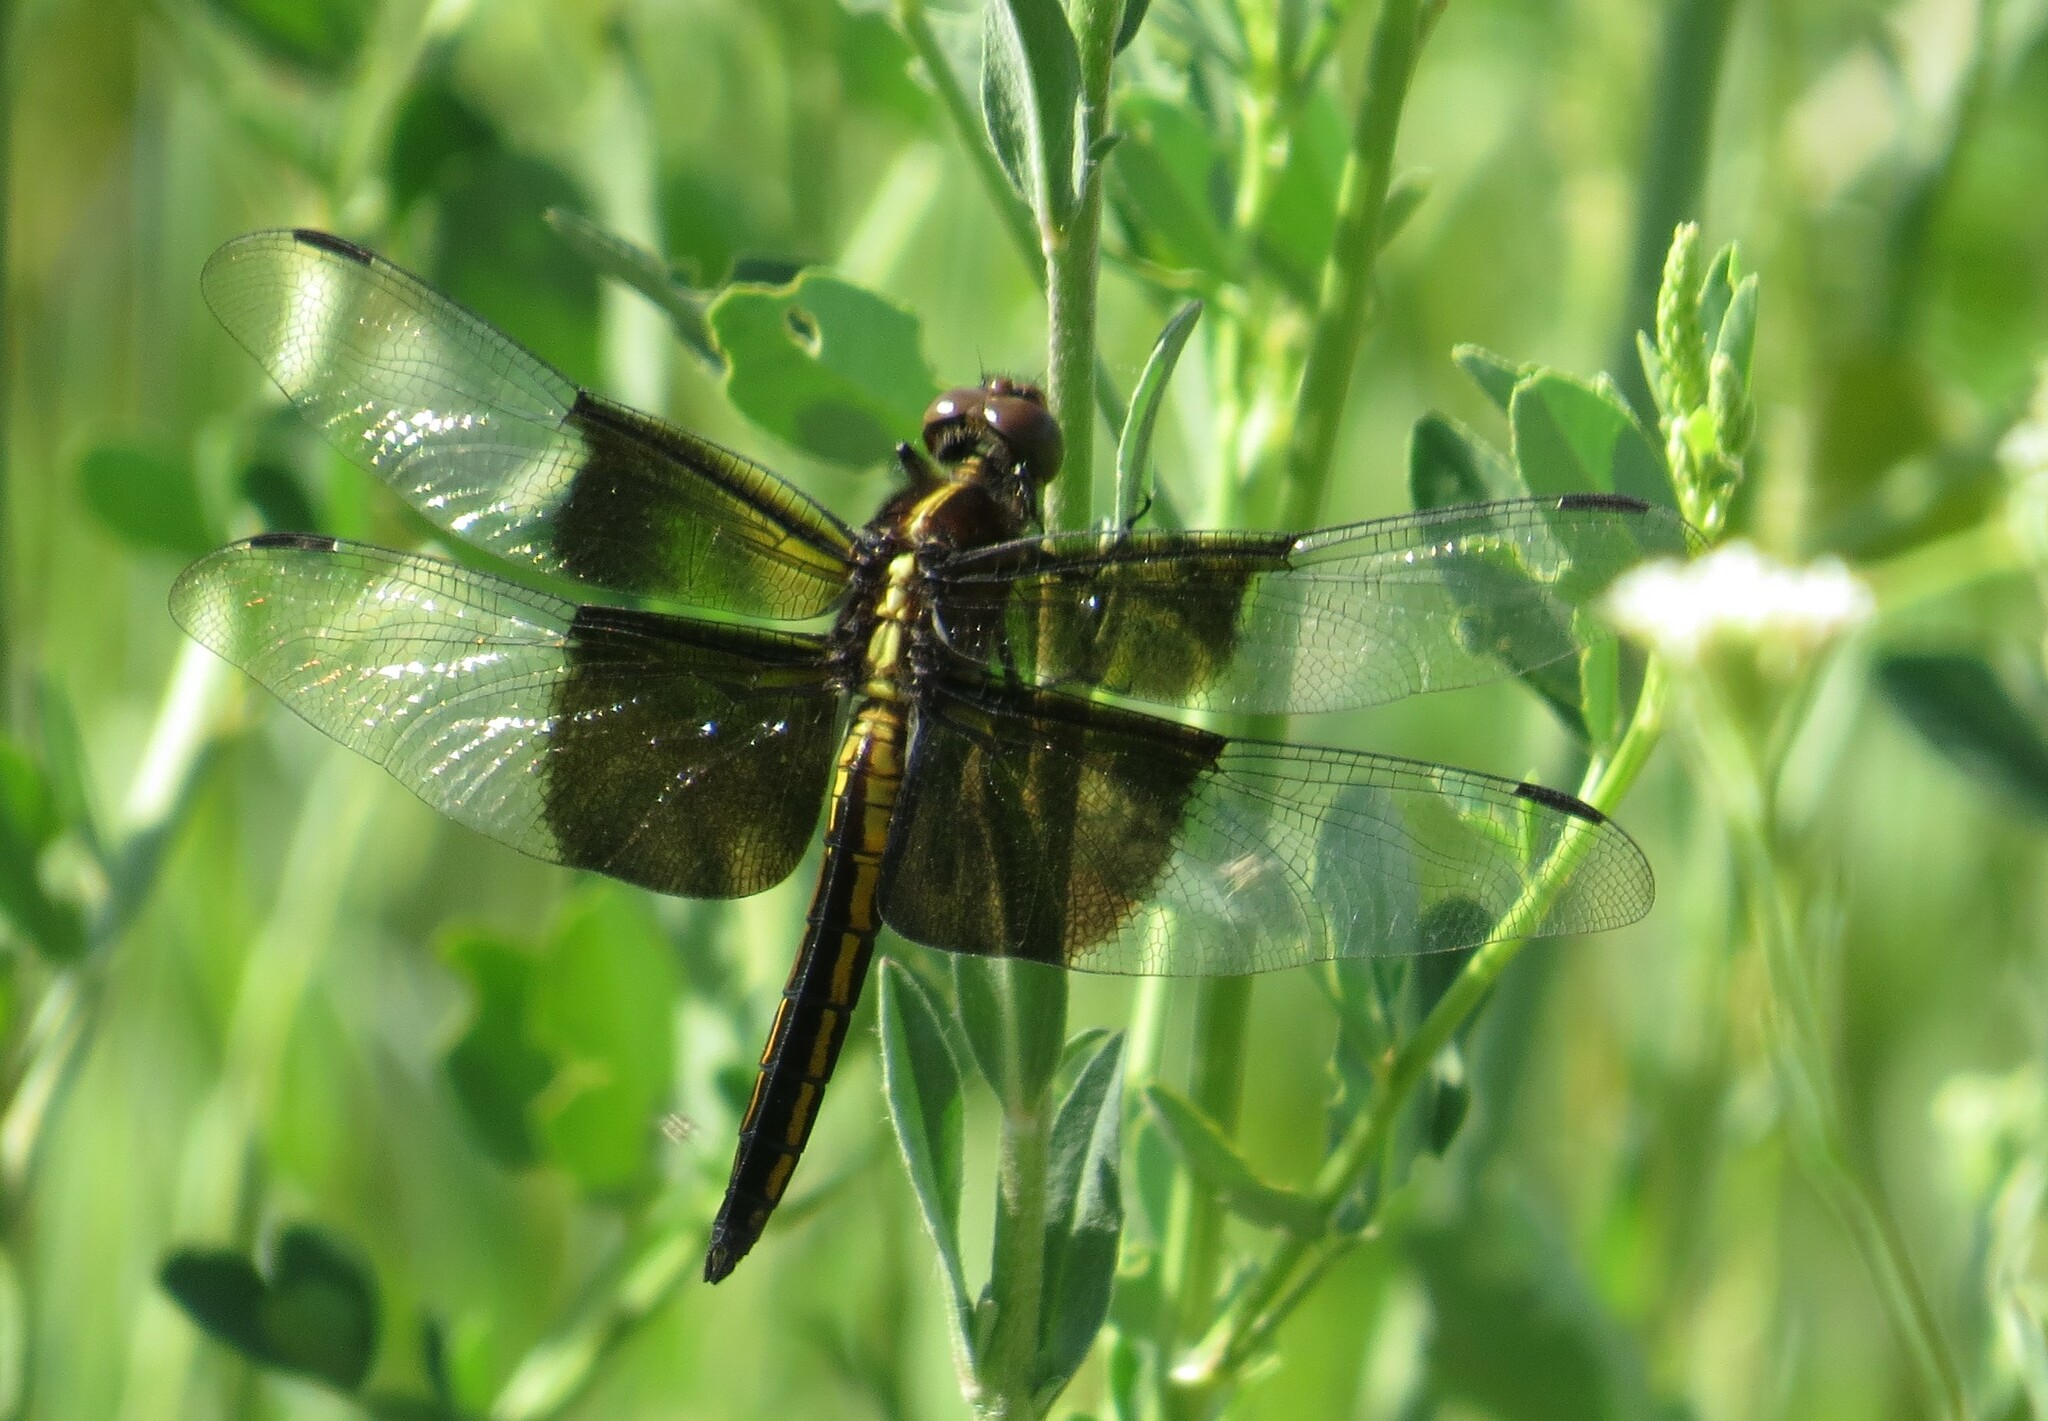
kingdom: Animalia
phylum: Arthropoda
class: Insecta
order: Odonata
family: Libellulidae
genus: Libellula
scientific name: Libellula luctuosa
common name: Widow skimmer
